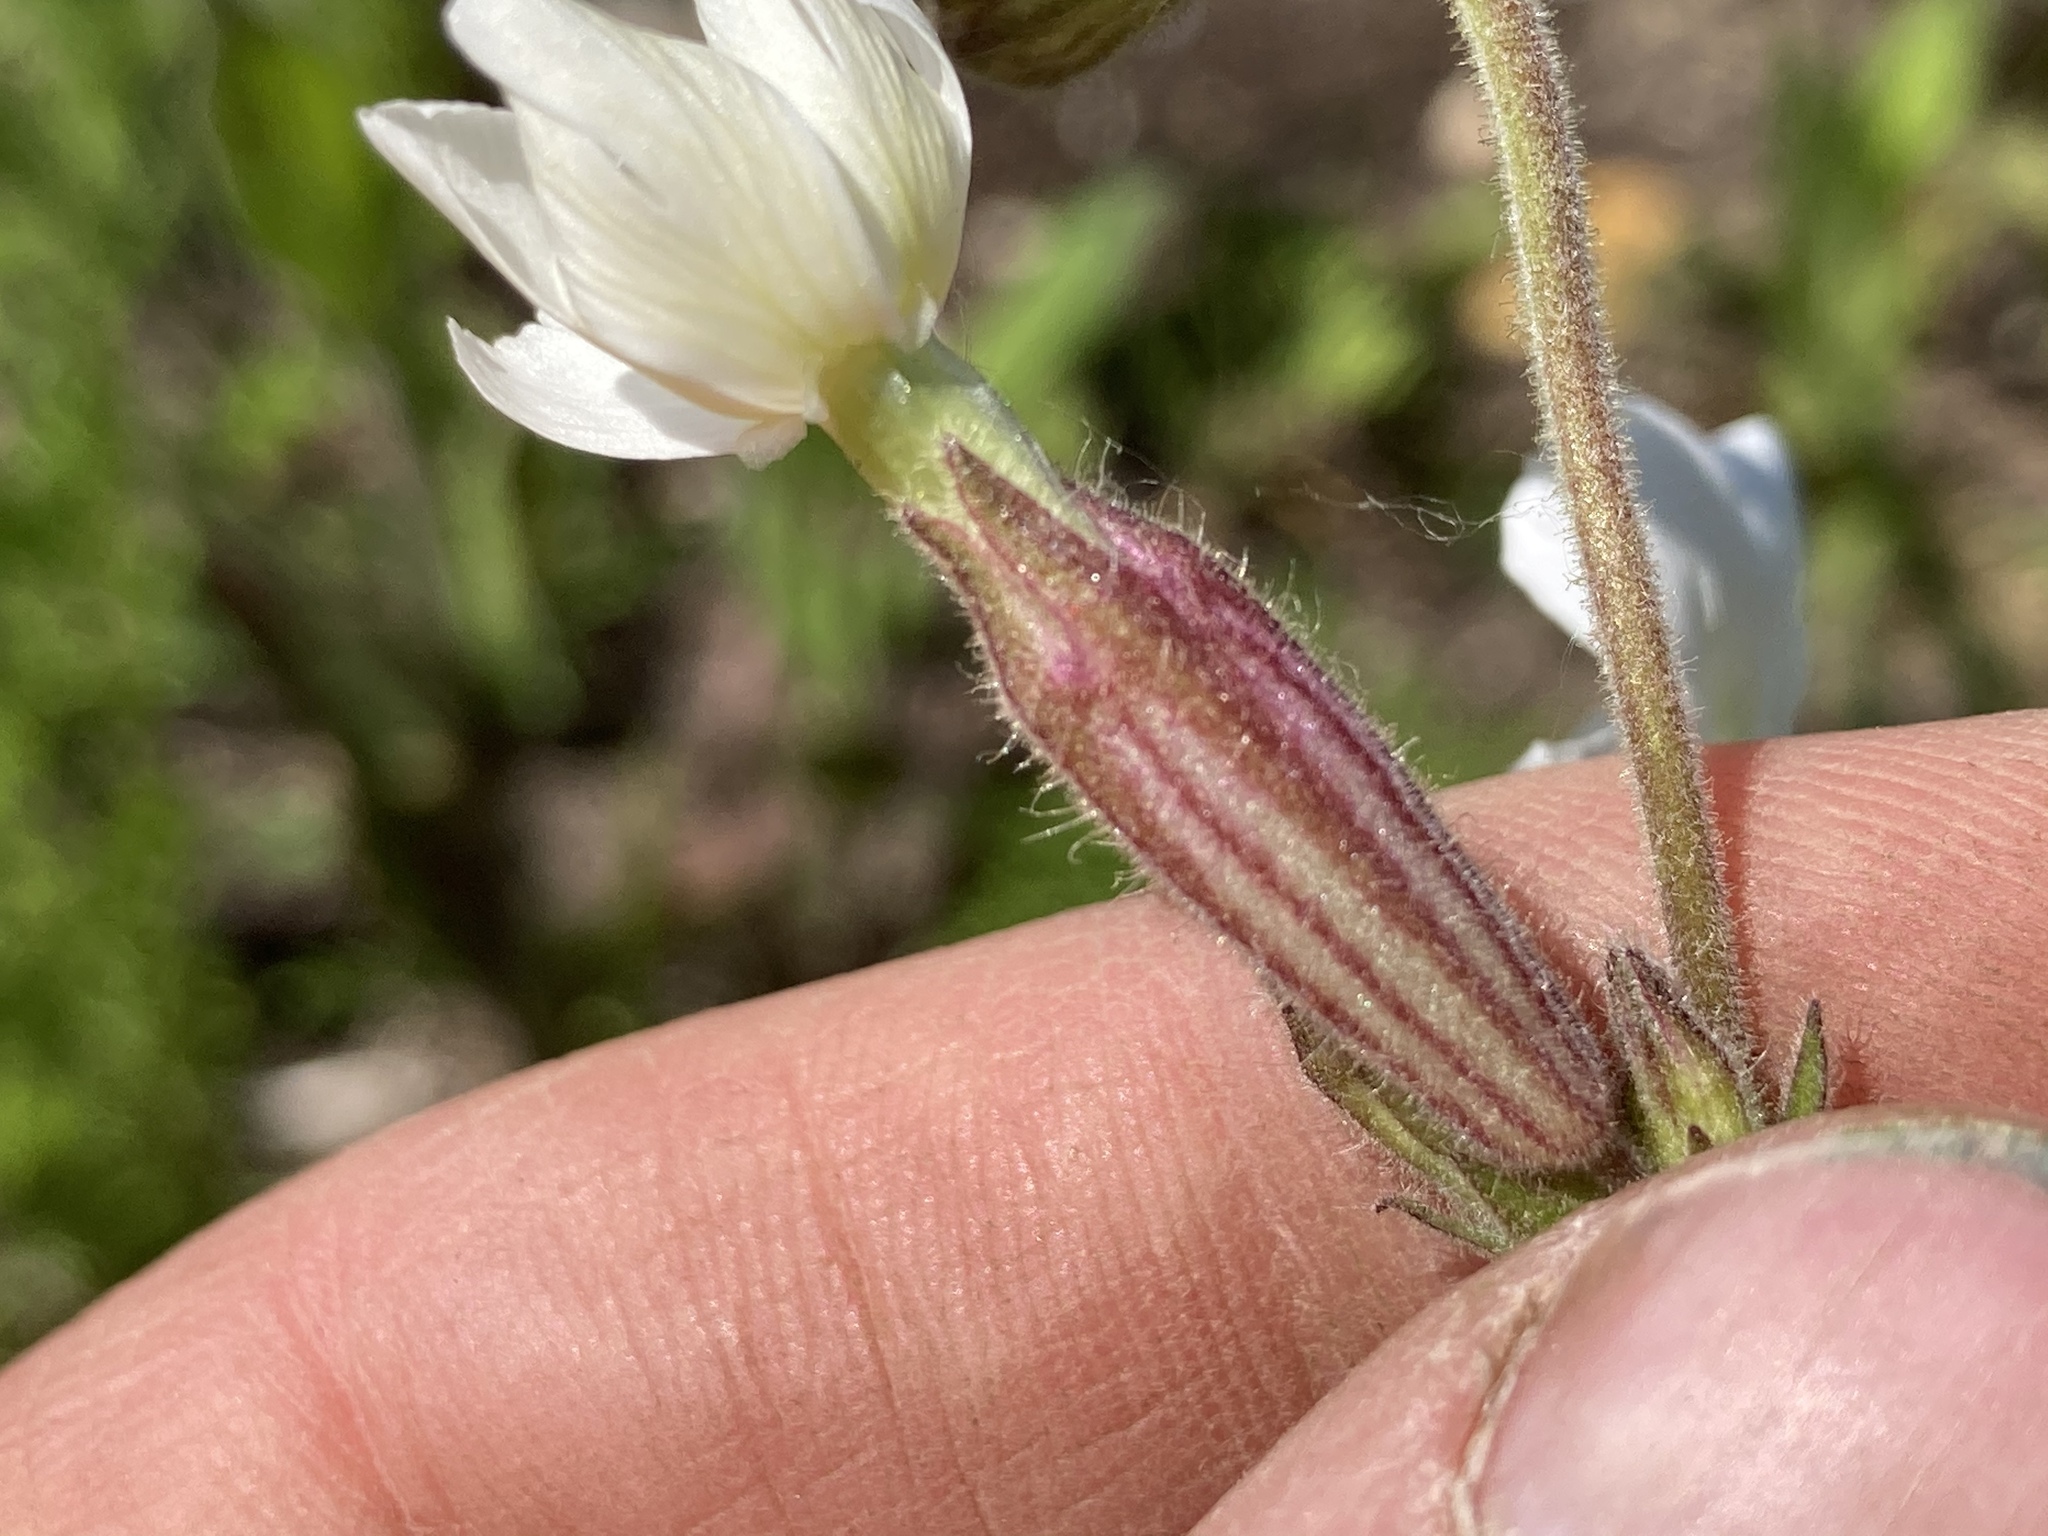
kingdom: Plantae
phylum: Tracheophyta
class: Magnoliopsida
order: Caryophyllales
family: Caryophyllaceae
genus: Silene
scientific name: Silene latifolia
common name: White campion
